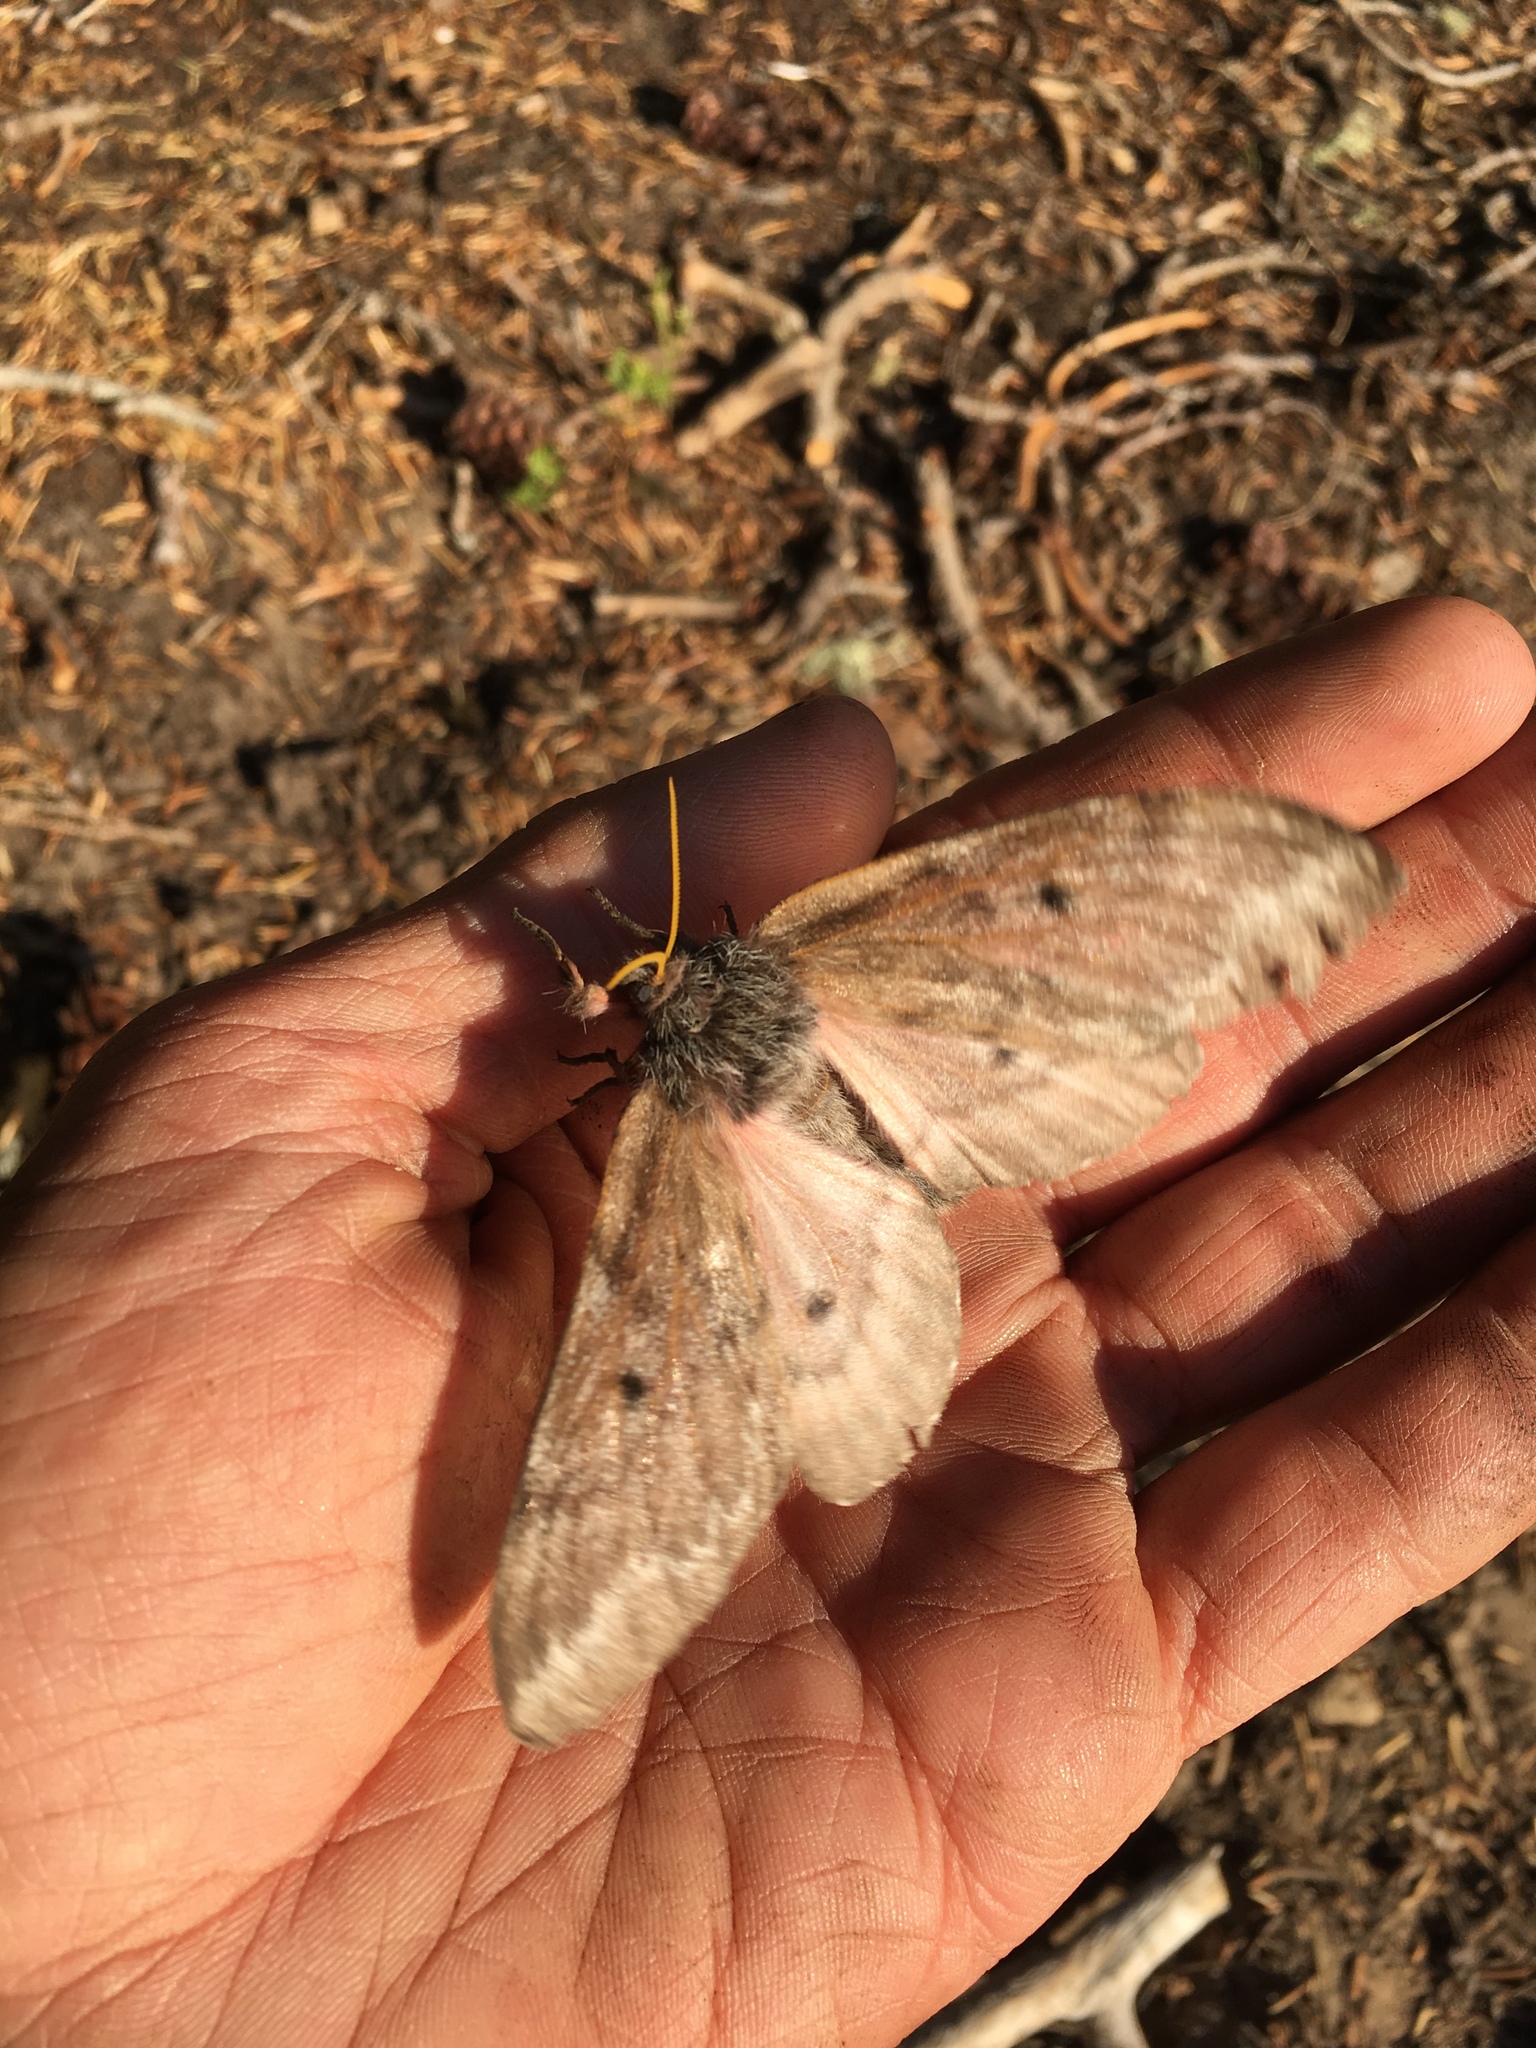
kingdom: Animalia
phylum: Arthropoda
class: Insecta
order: Lepidoptera
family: Saturniidae
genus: Coloradia
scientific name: Coloradia pandora
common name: Pandora pinemoth
